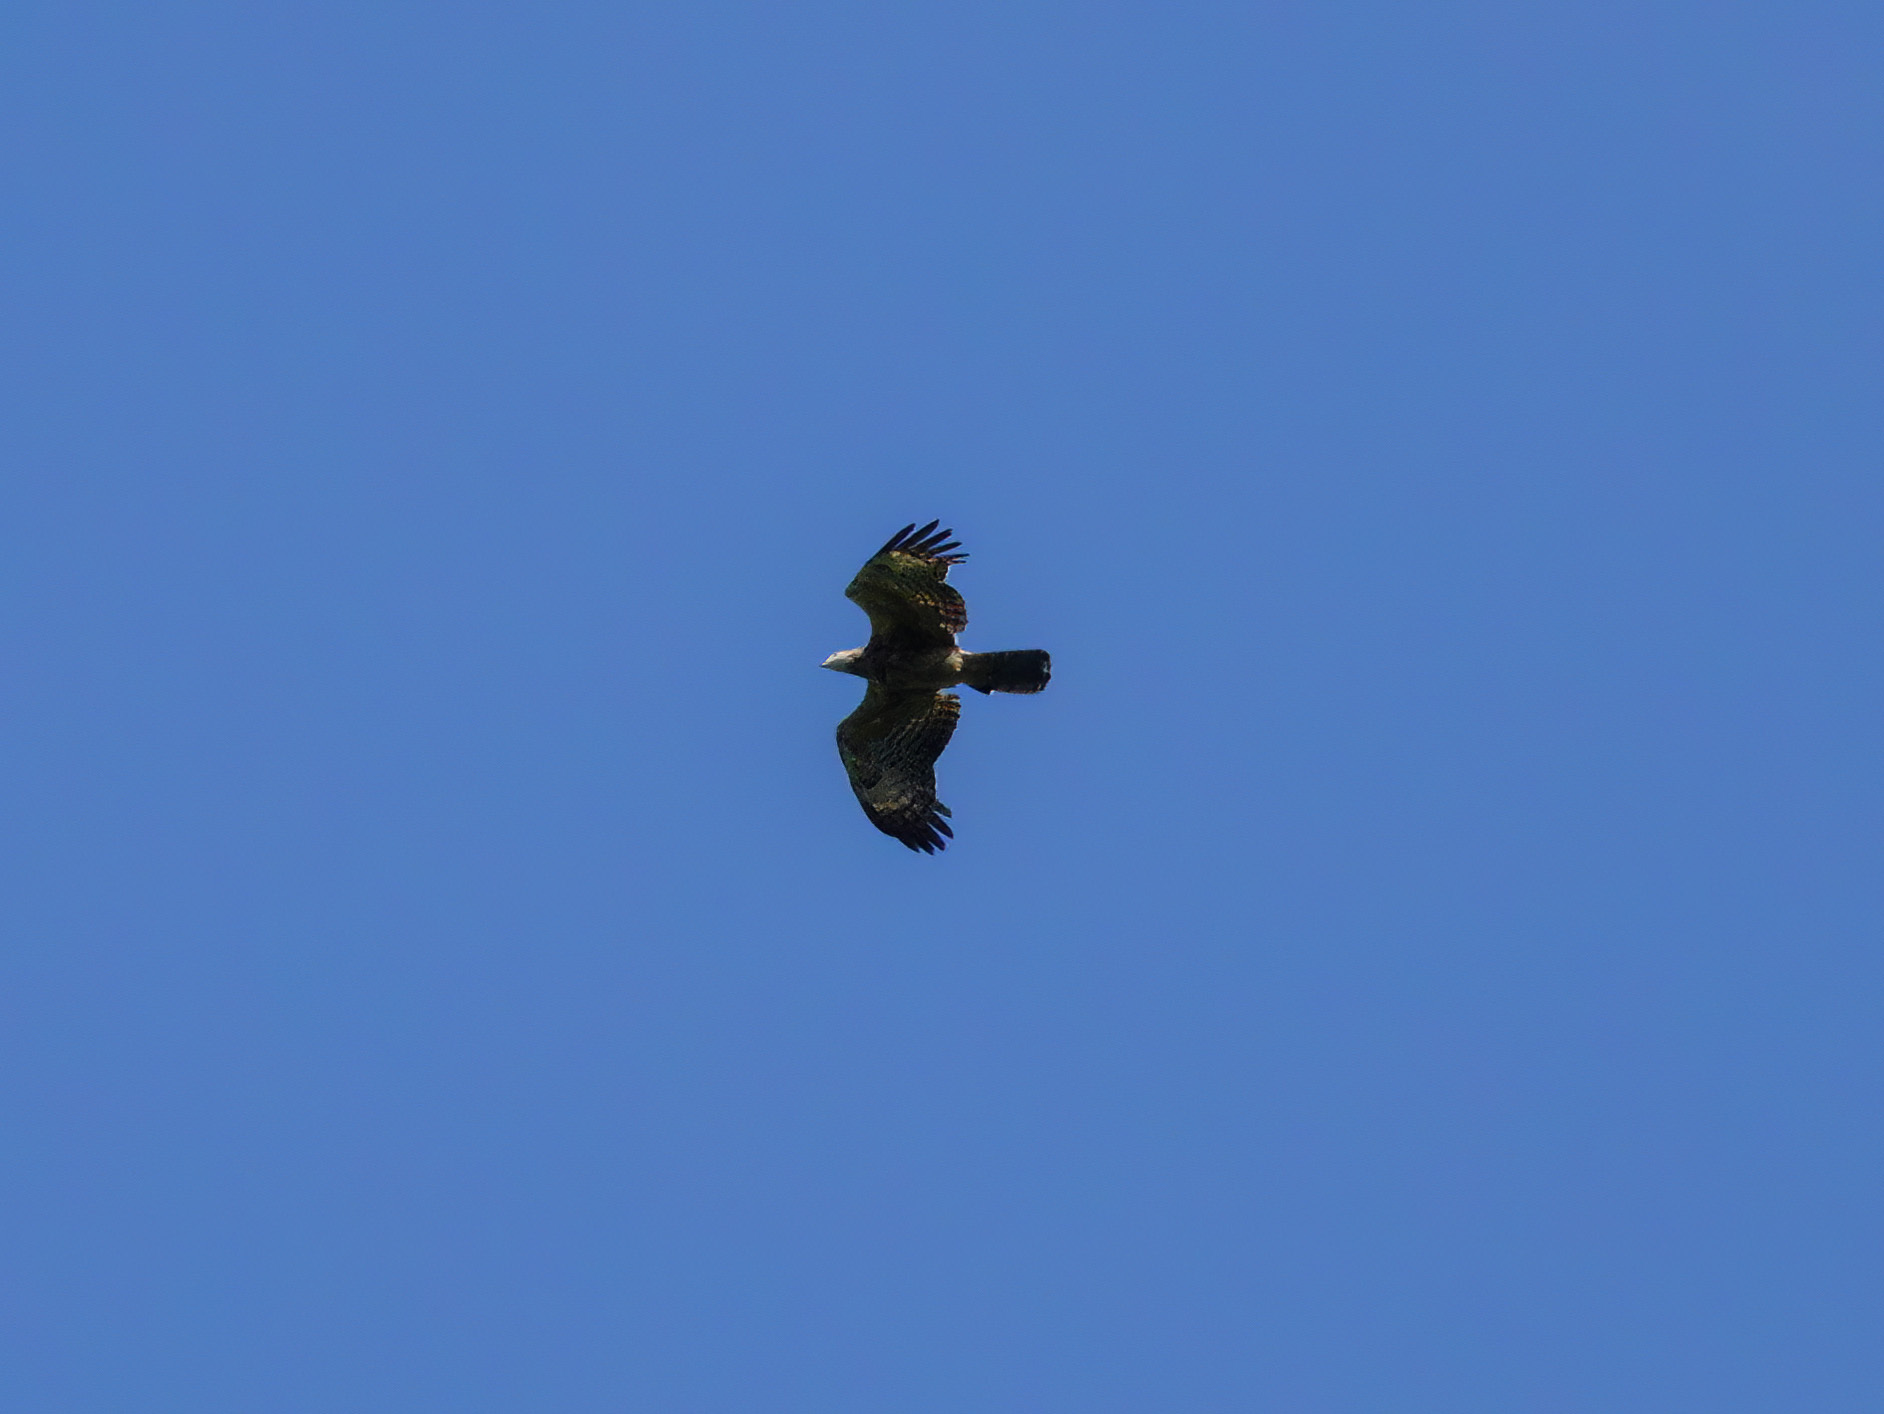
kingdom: Animalia
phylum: Chordata
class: Aves
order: Accipitriformes
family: Accipitridae
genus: Pernis
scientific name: Pernis ptilorhynchus
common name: Crested honey buzzard
